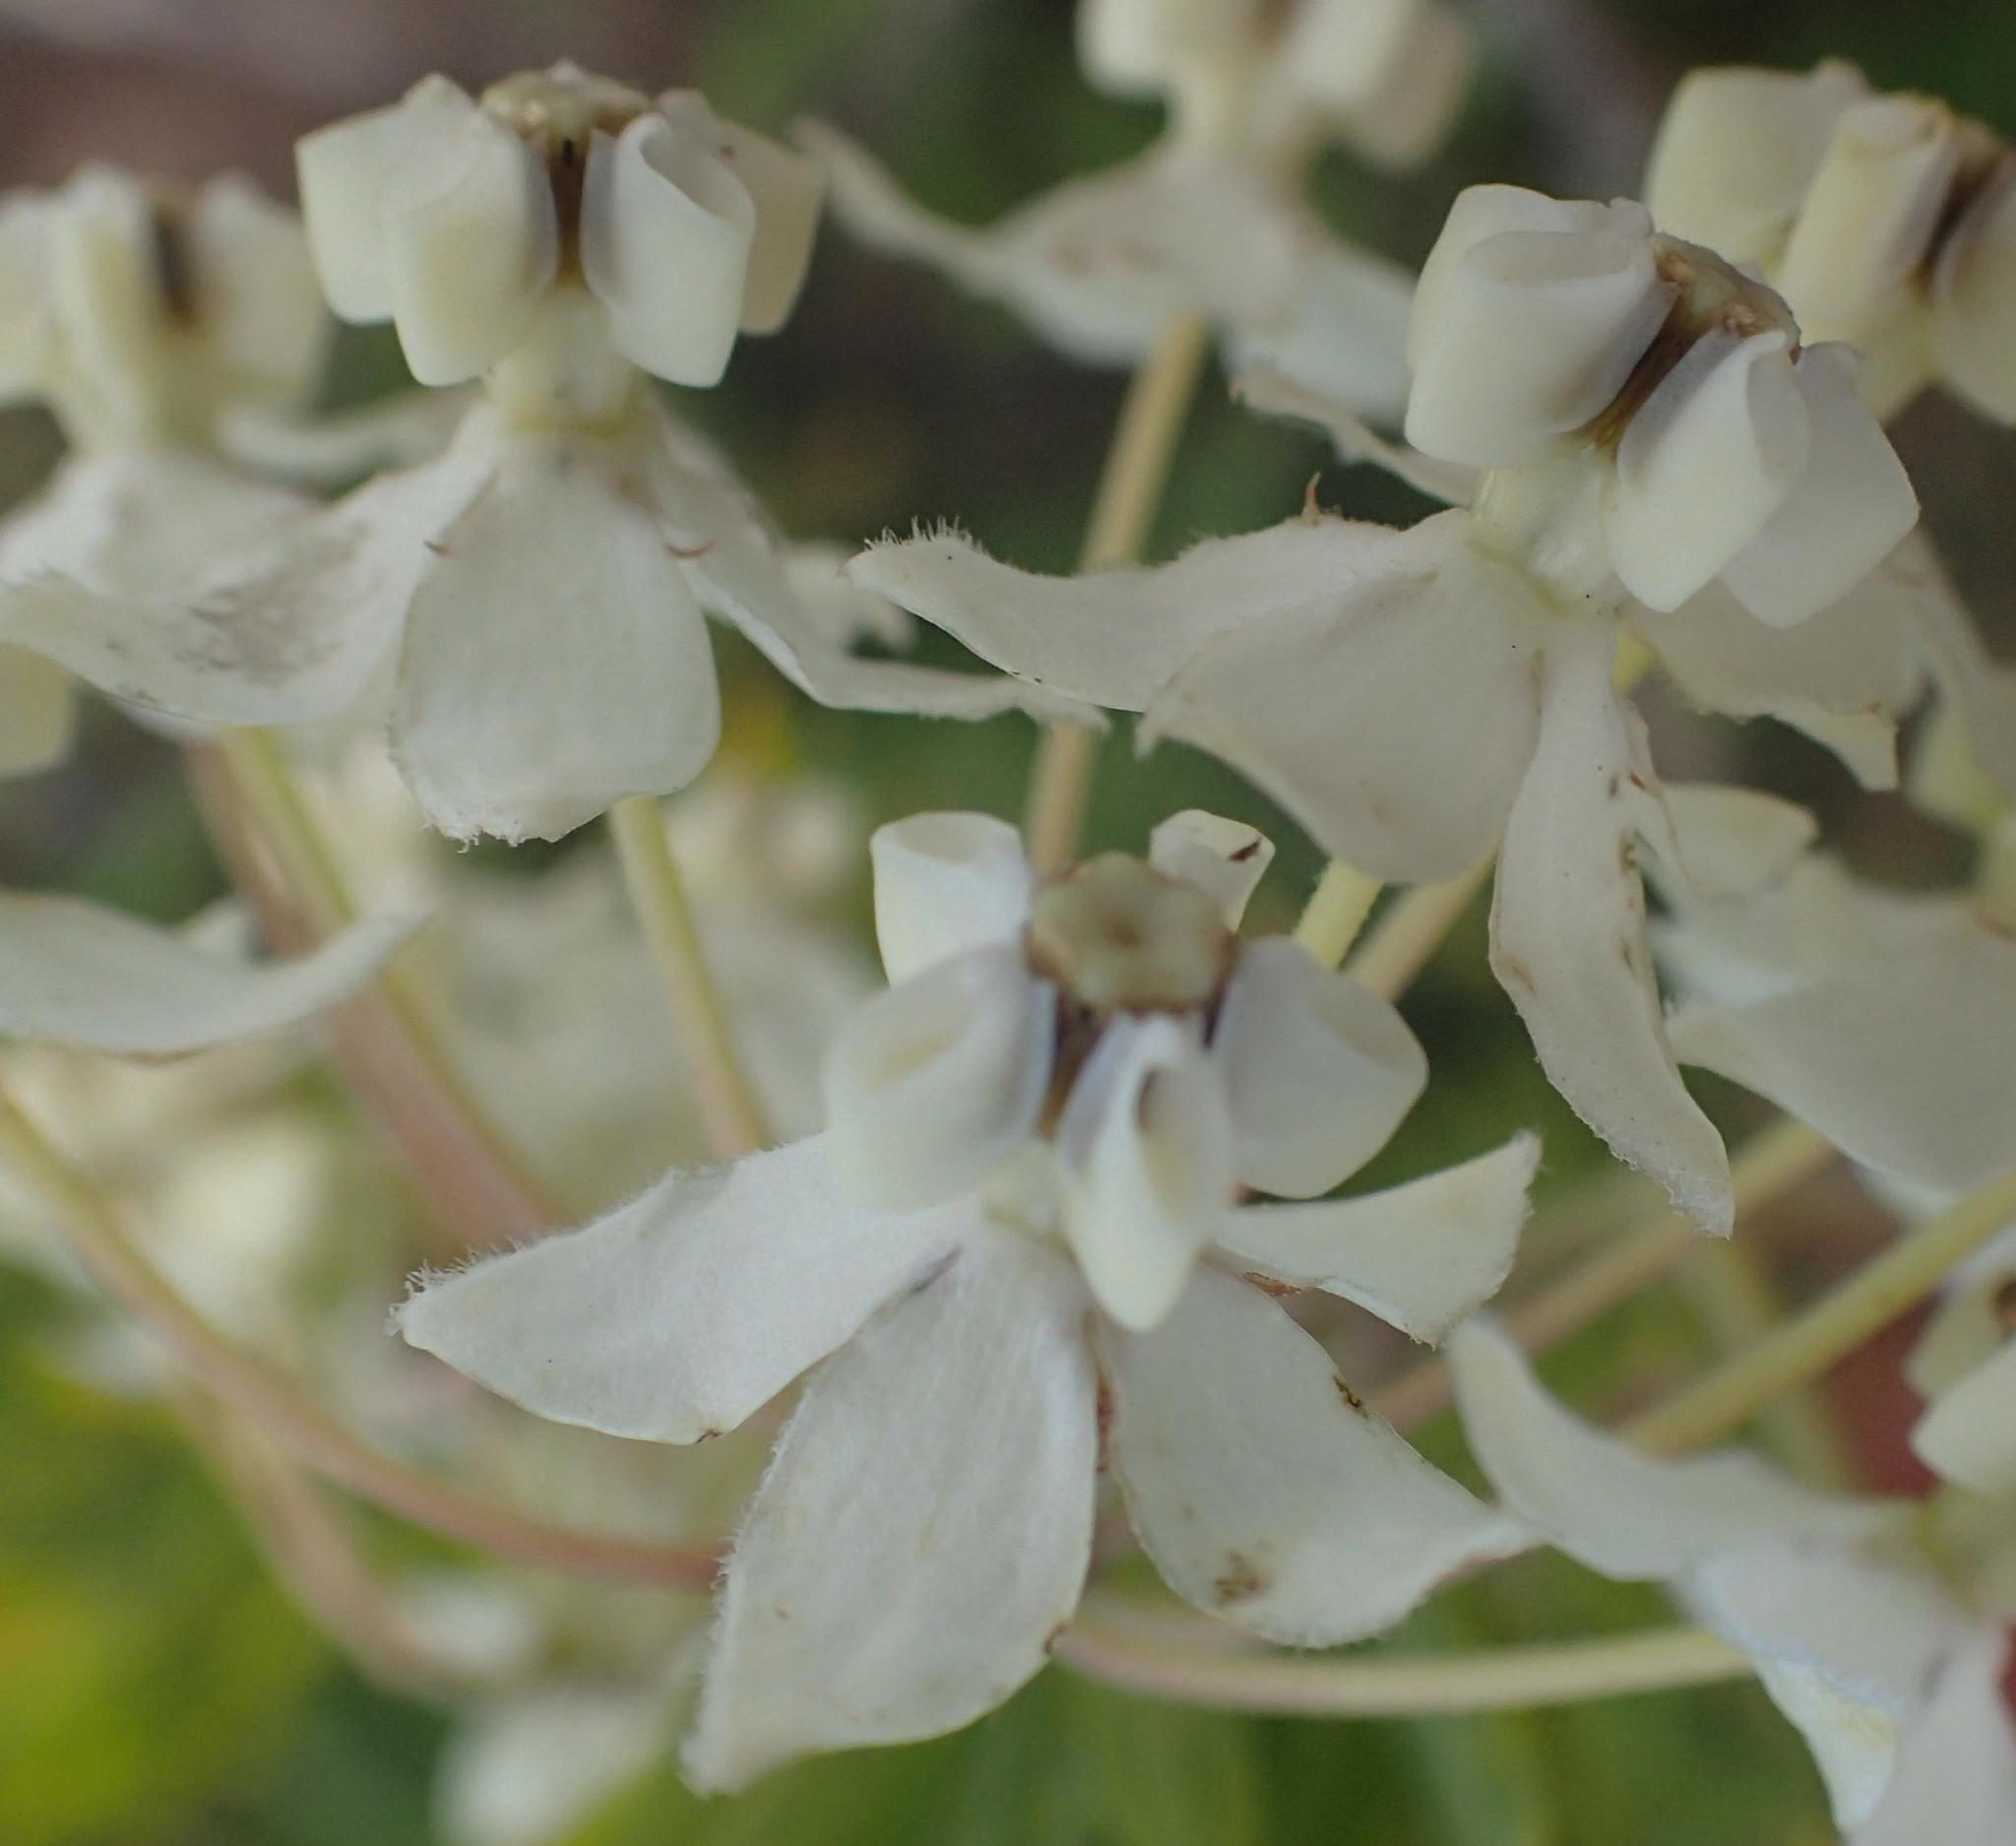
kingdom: Plantae
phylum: Tracheophyta
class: Magnoliopsida
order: Gentianales
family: Apocynaceae
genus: Gomphocarpus
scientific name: Gomphocarpus physocarpus
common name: Balloon cotton bush
